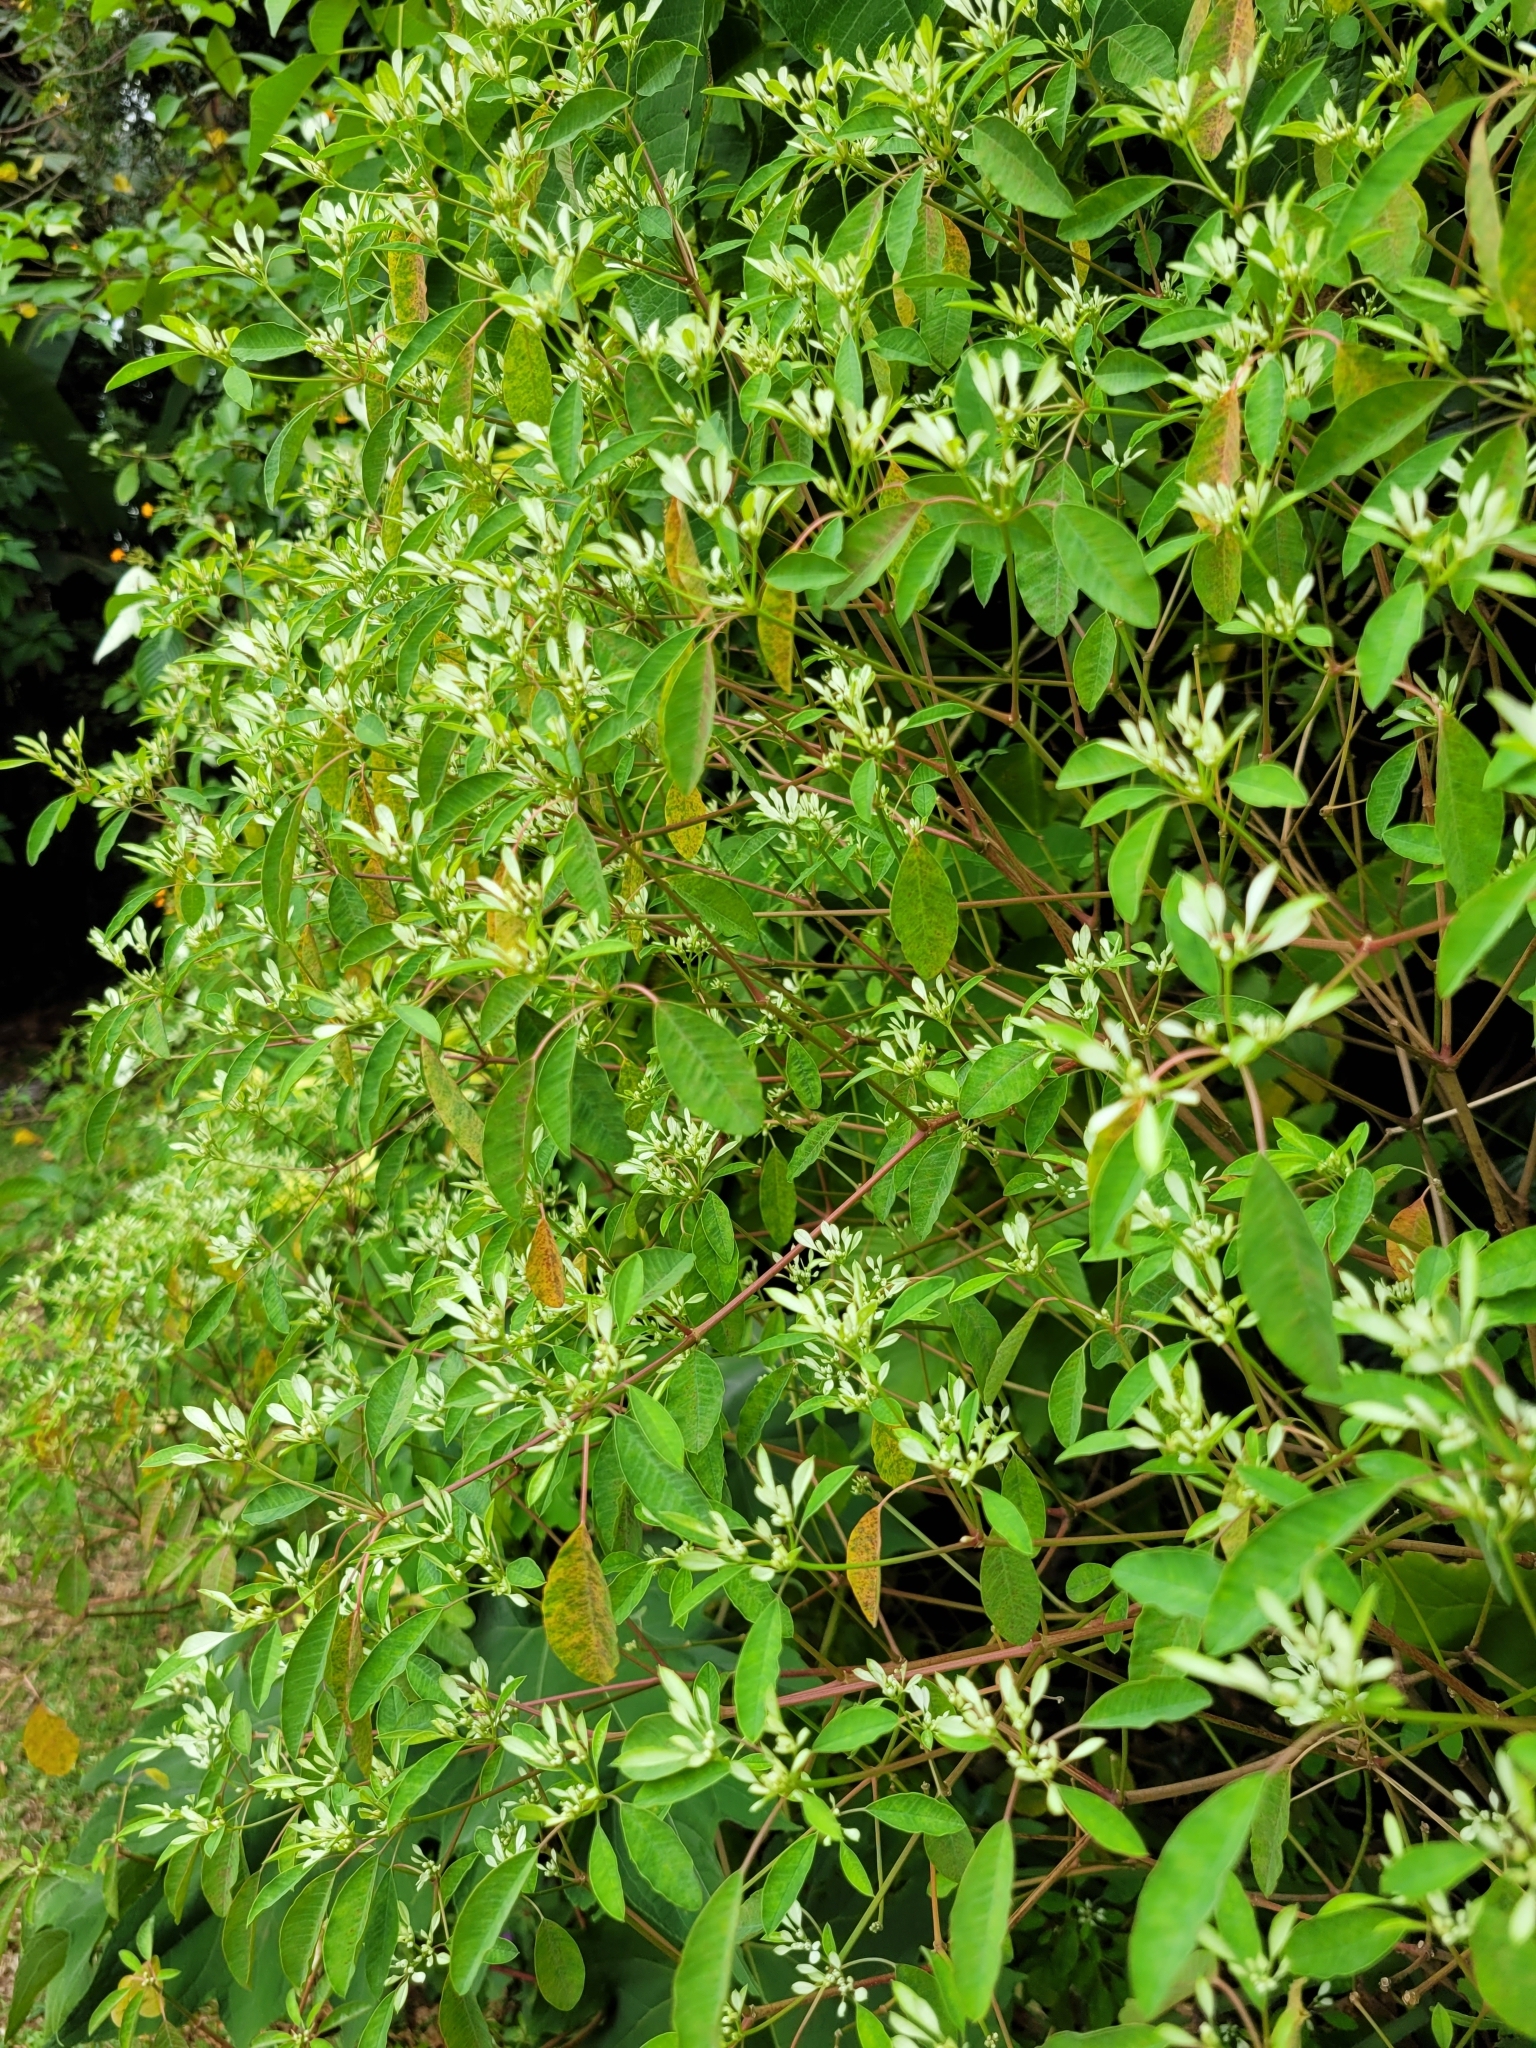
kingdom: Plantae
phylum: Tracheophyta
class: Magnoliopsida
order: Malpighiales
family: Euphorbiaceae
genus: Euphorbia
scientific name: Euphorbia leucocephala
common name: Pascuita
